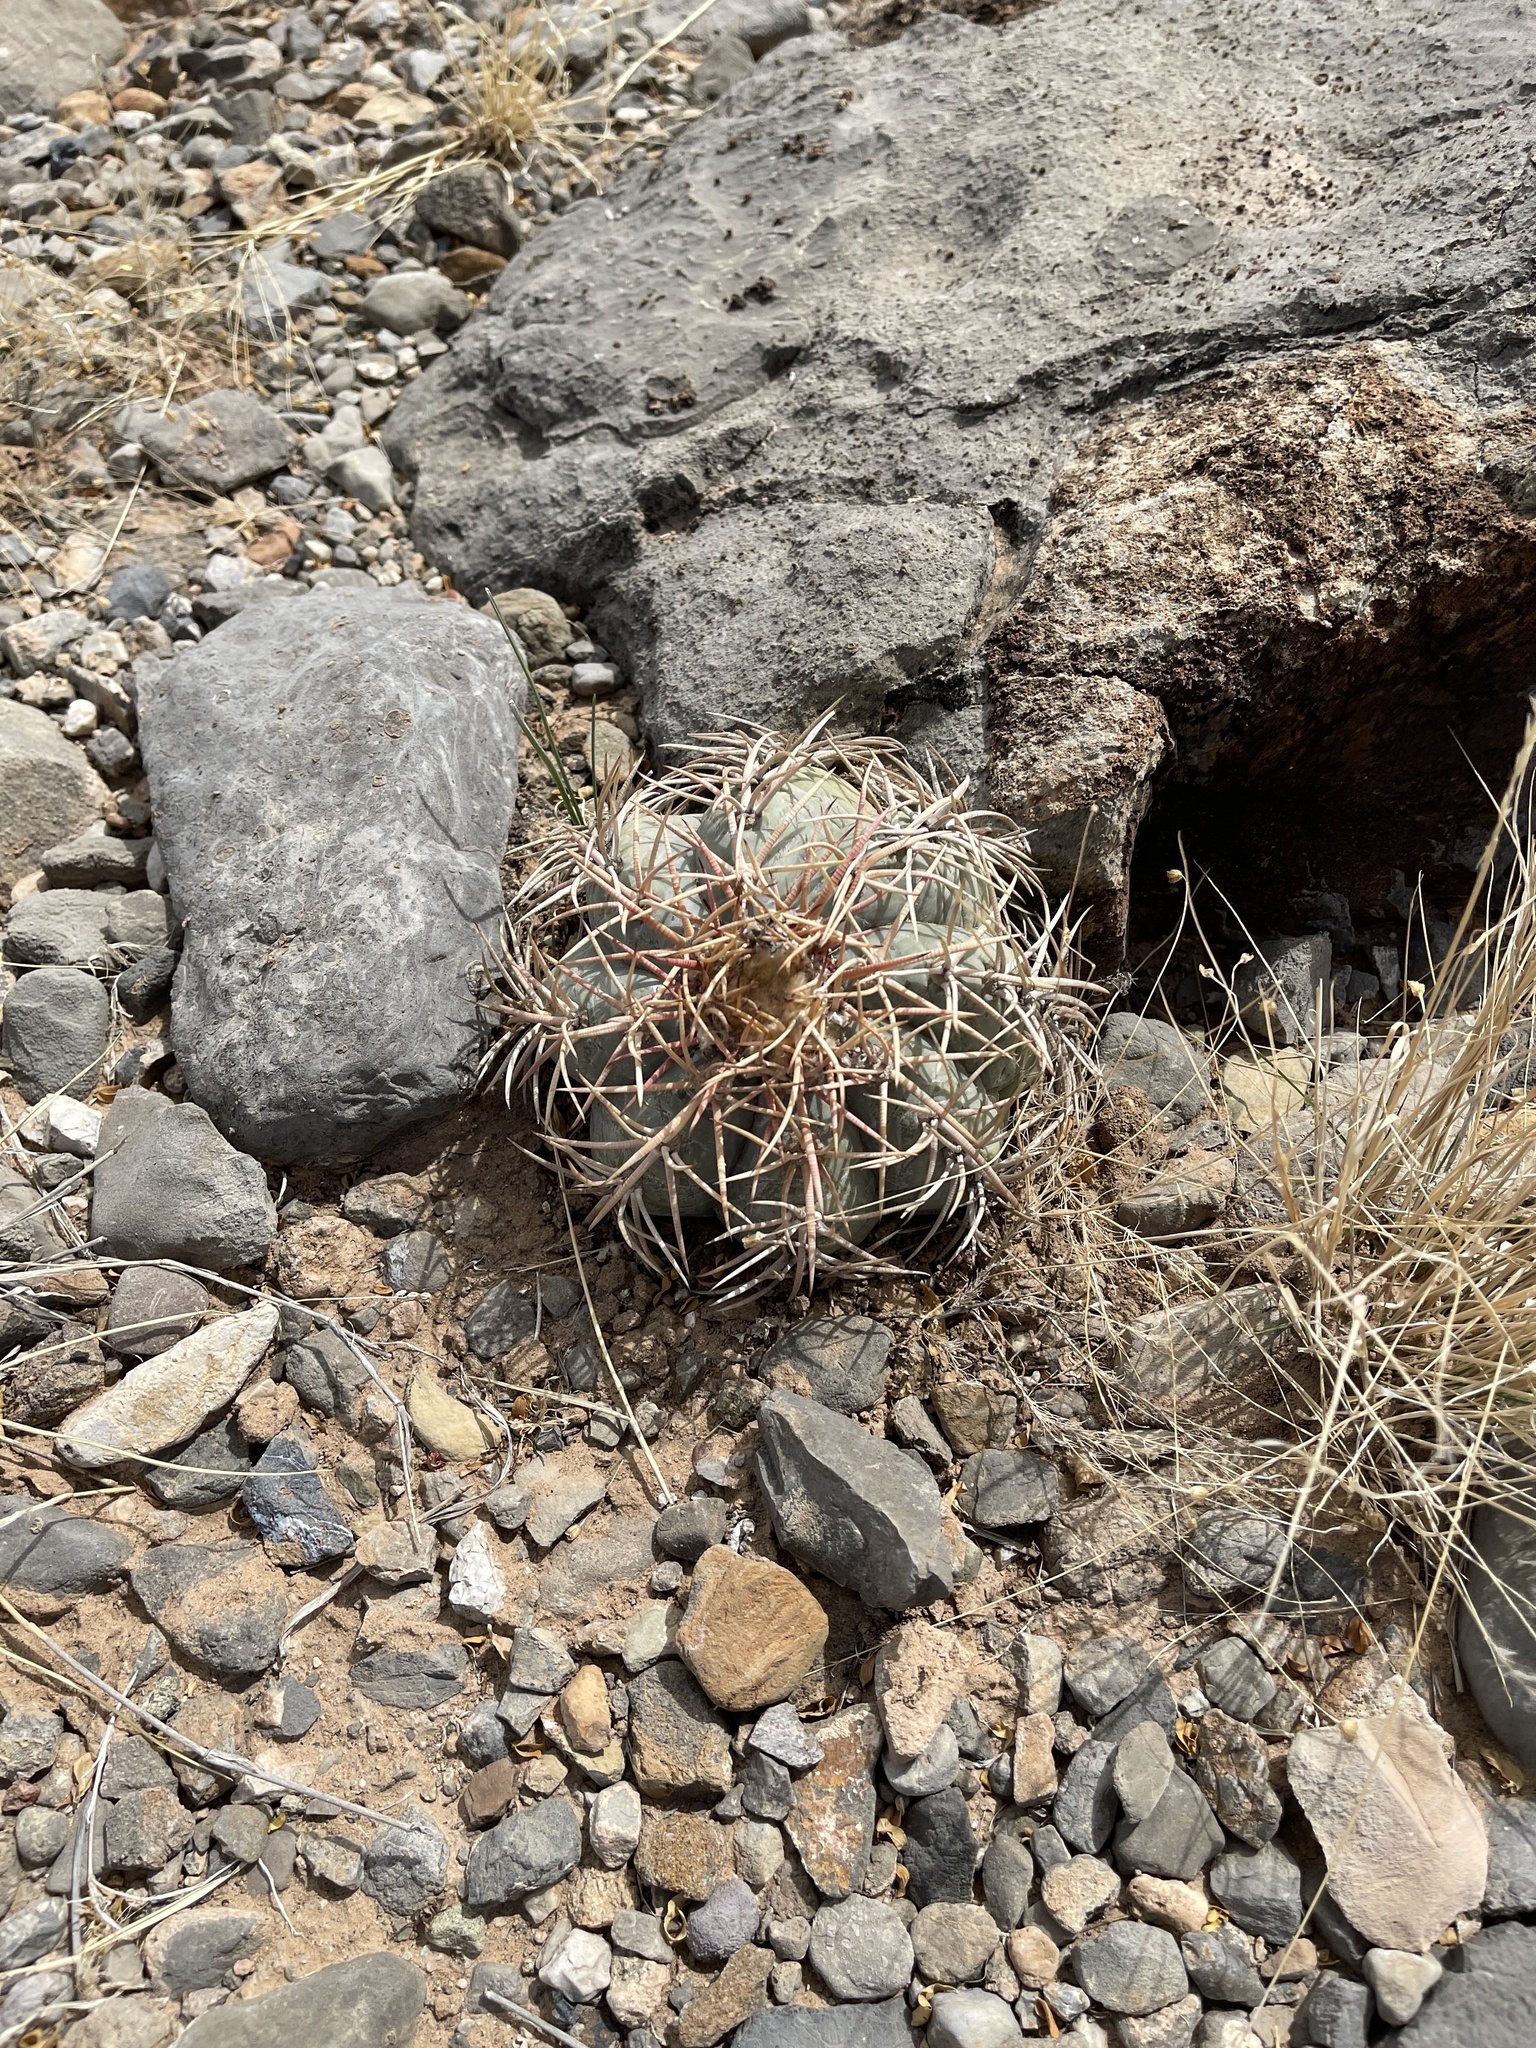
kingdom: Plantae
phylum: Tracheophyta
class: Magnoliopsida
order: Caryophyllales
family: Cactaceae
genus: Echinocactus
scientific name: Echinocactus horizonthalonius
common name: Devilshead
